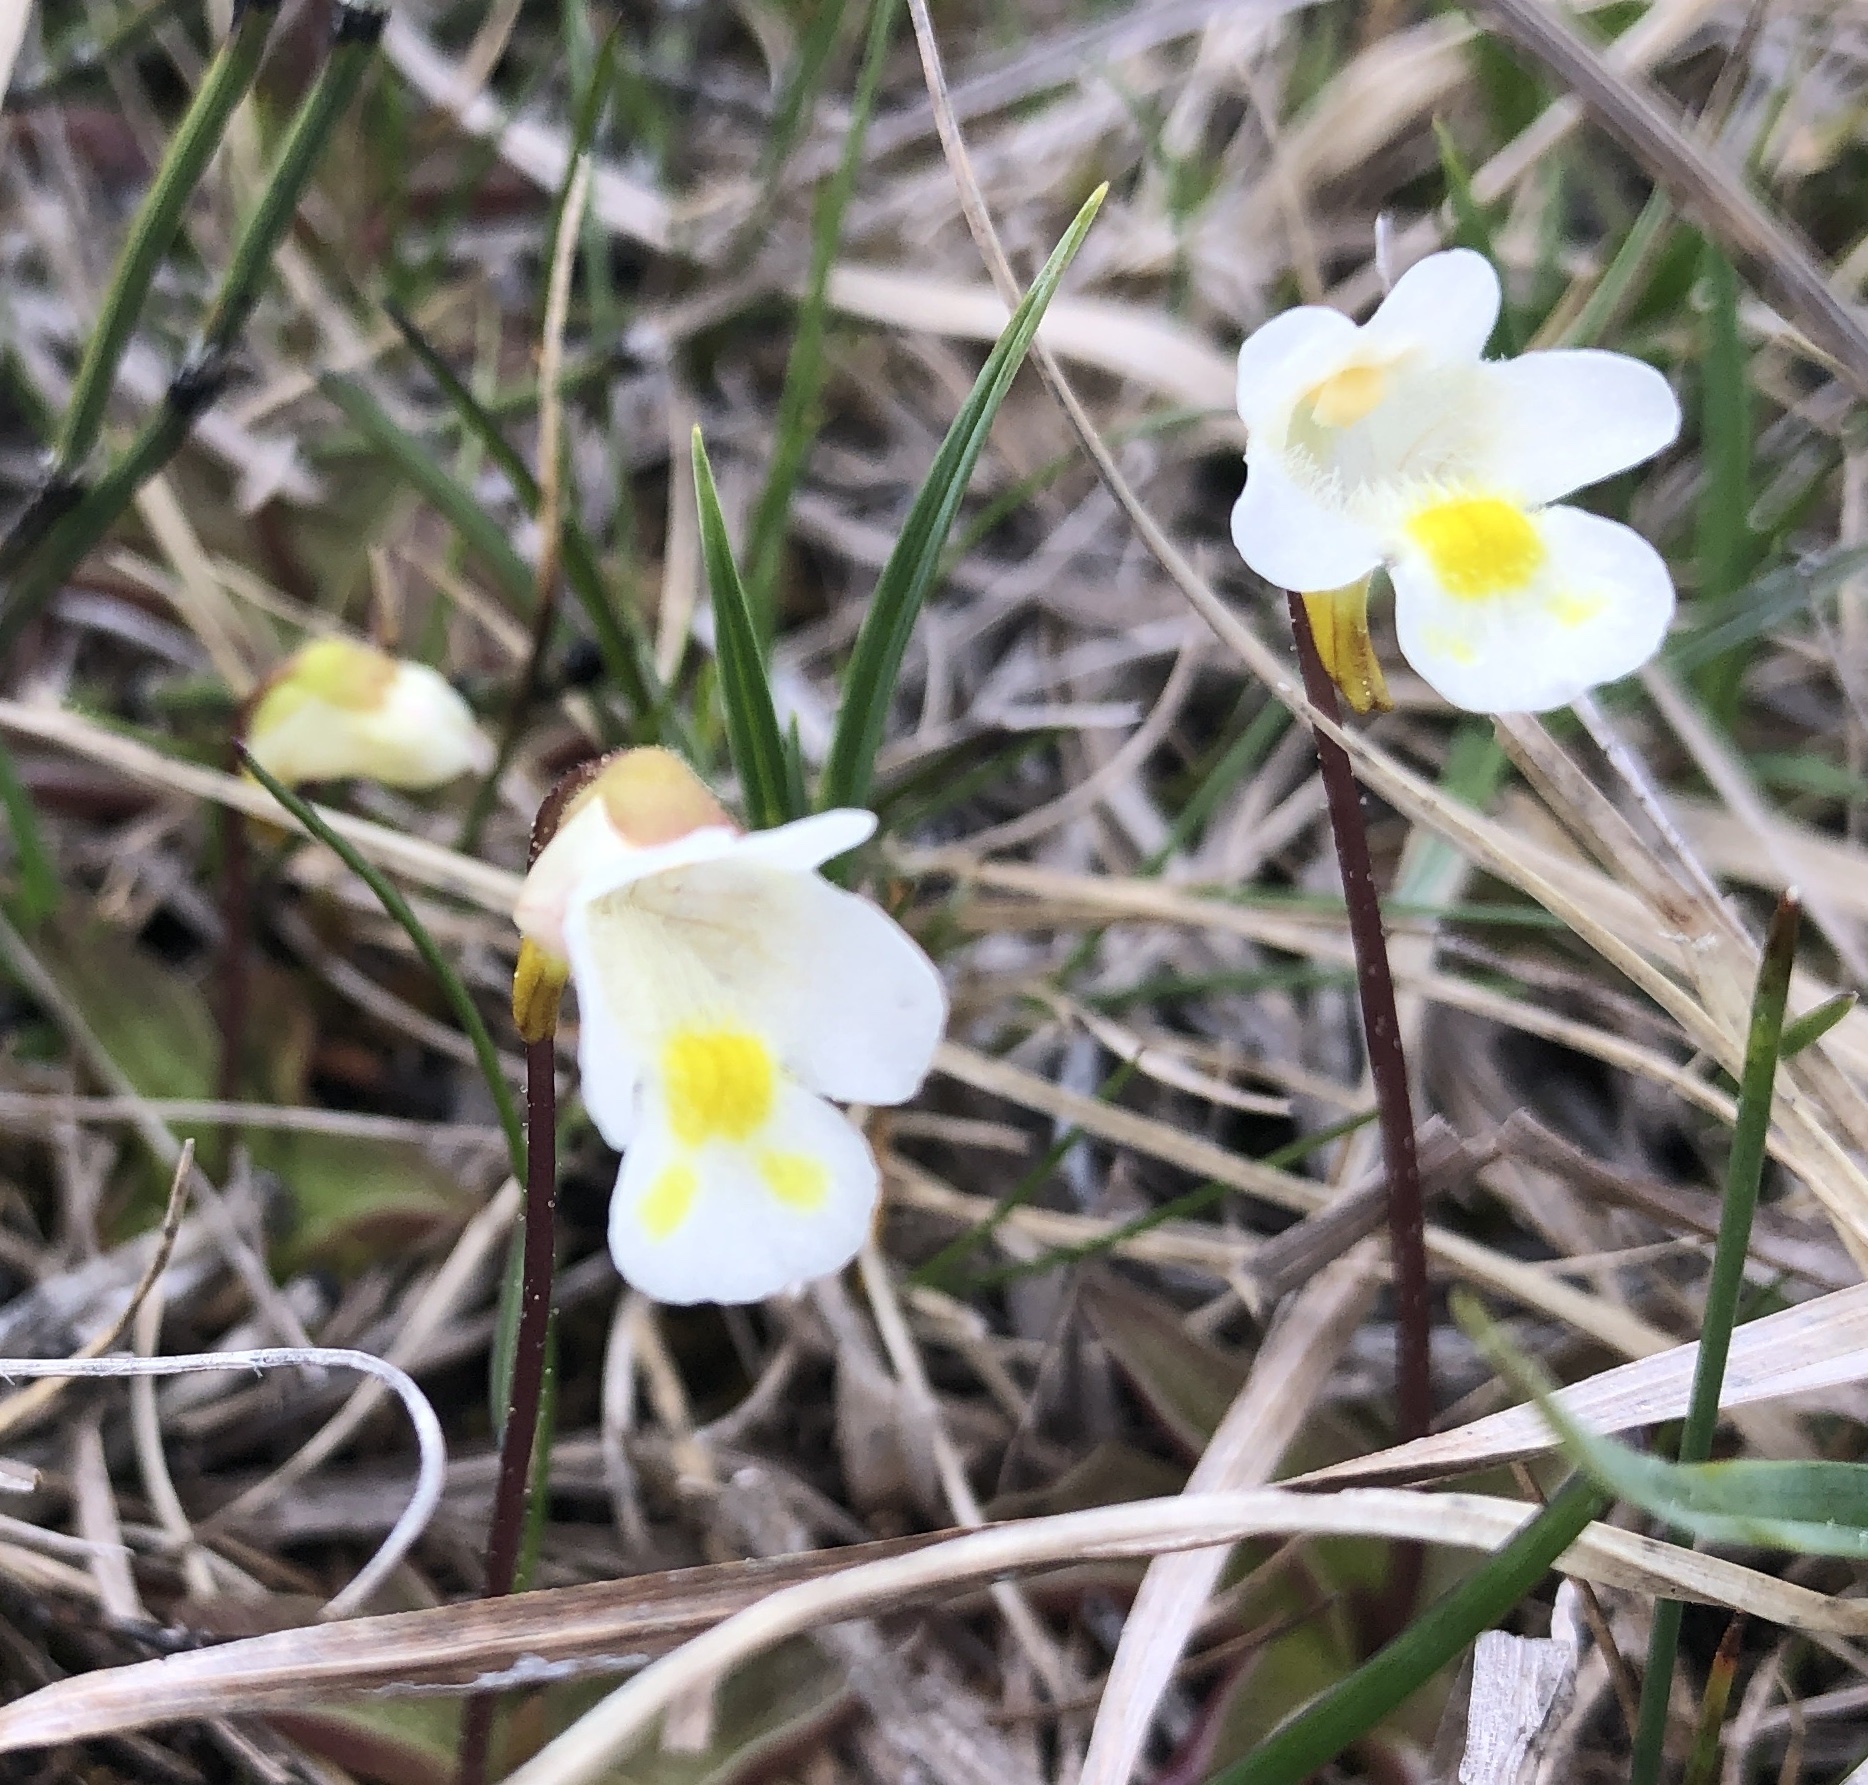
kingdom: Plantae
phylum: Tracheophyta
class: Magnoliopsida
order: Lamiales
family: Lentibulariaceae
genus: Pinguicula
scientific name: Pinguicula alpina
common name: Alpine butterwort
